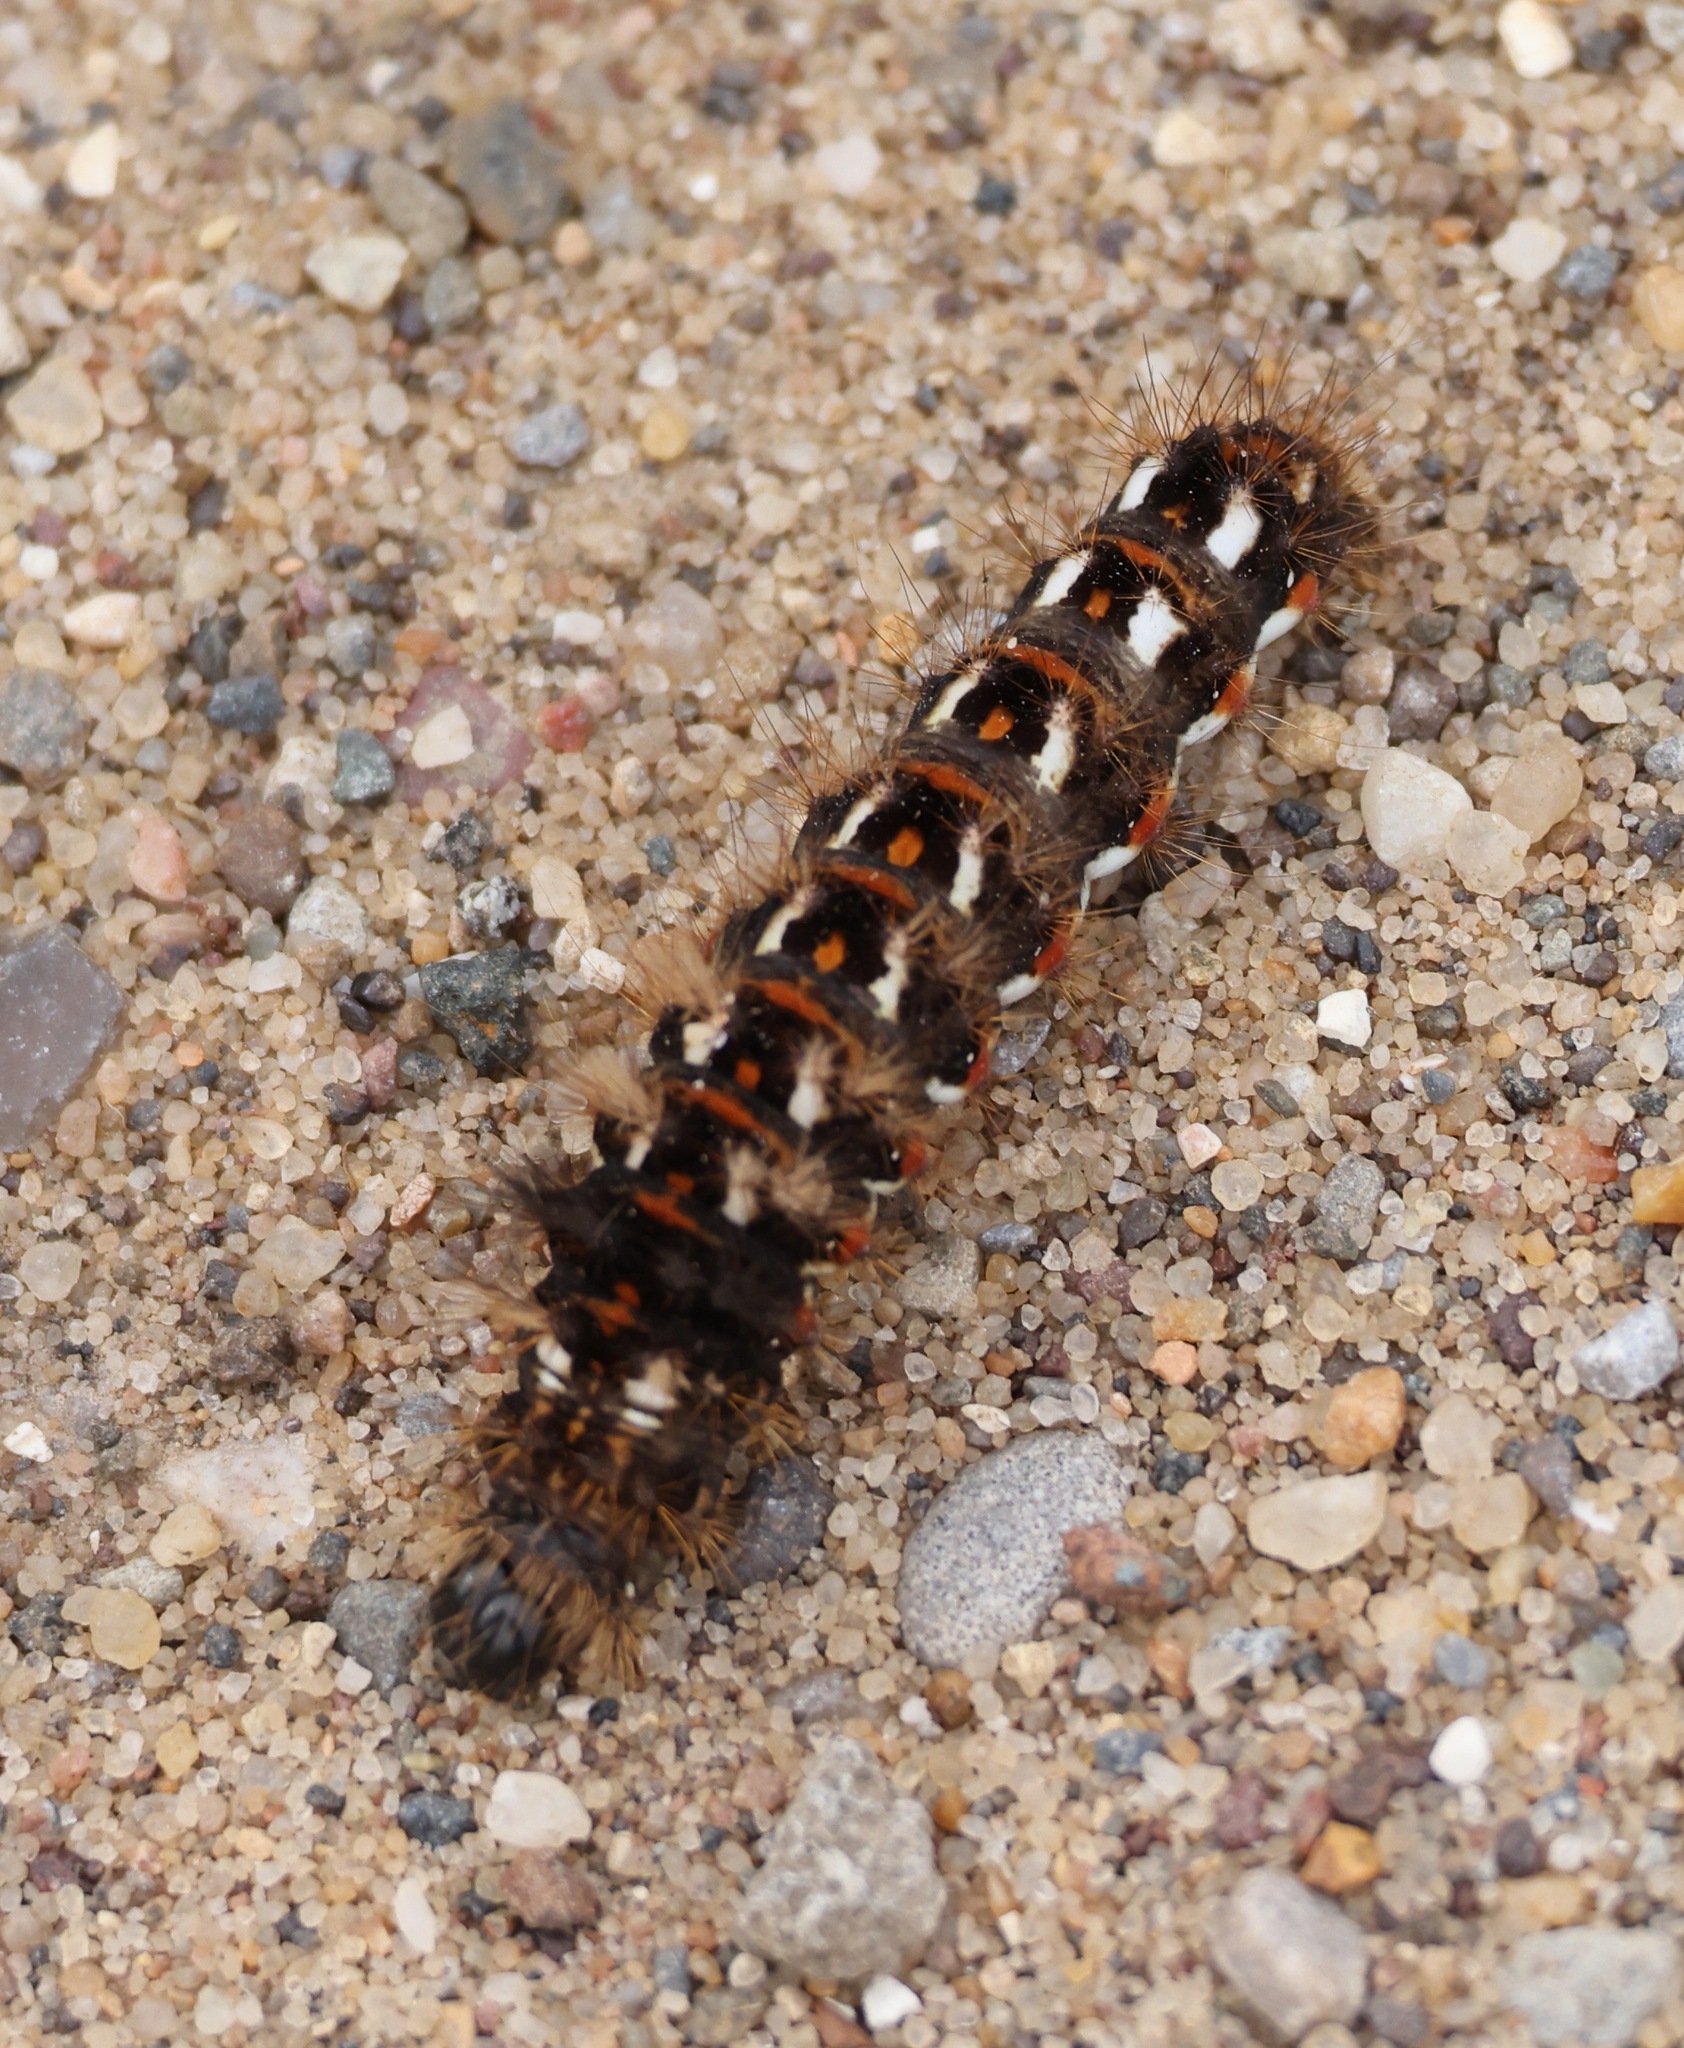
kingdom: Animalia
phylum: Arthropoda
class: Insecta
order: Lepidoptera
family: Noctuidae
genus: Acronicta
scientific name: Acronicta rumicis
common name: Knot grass
